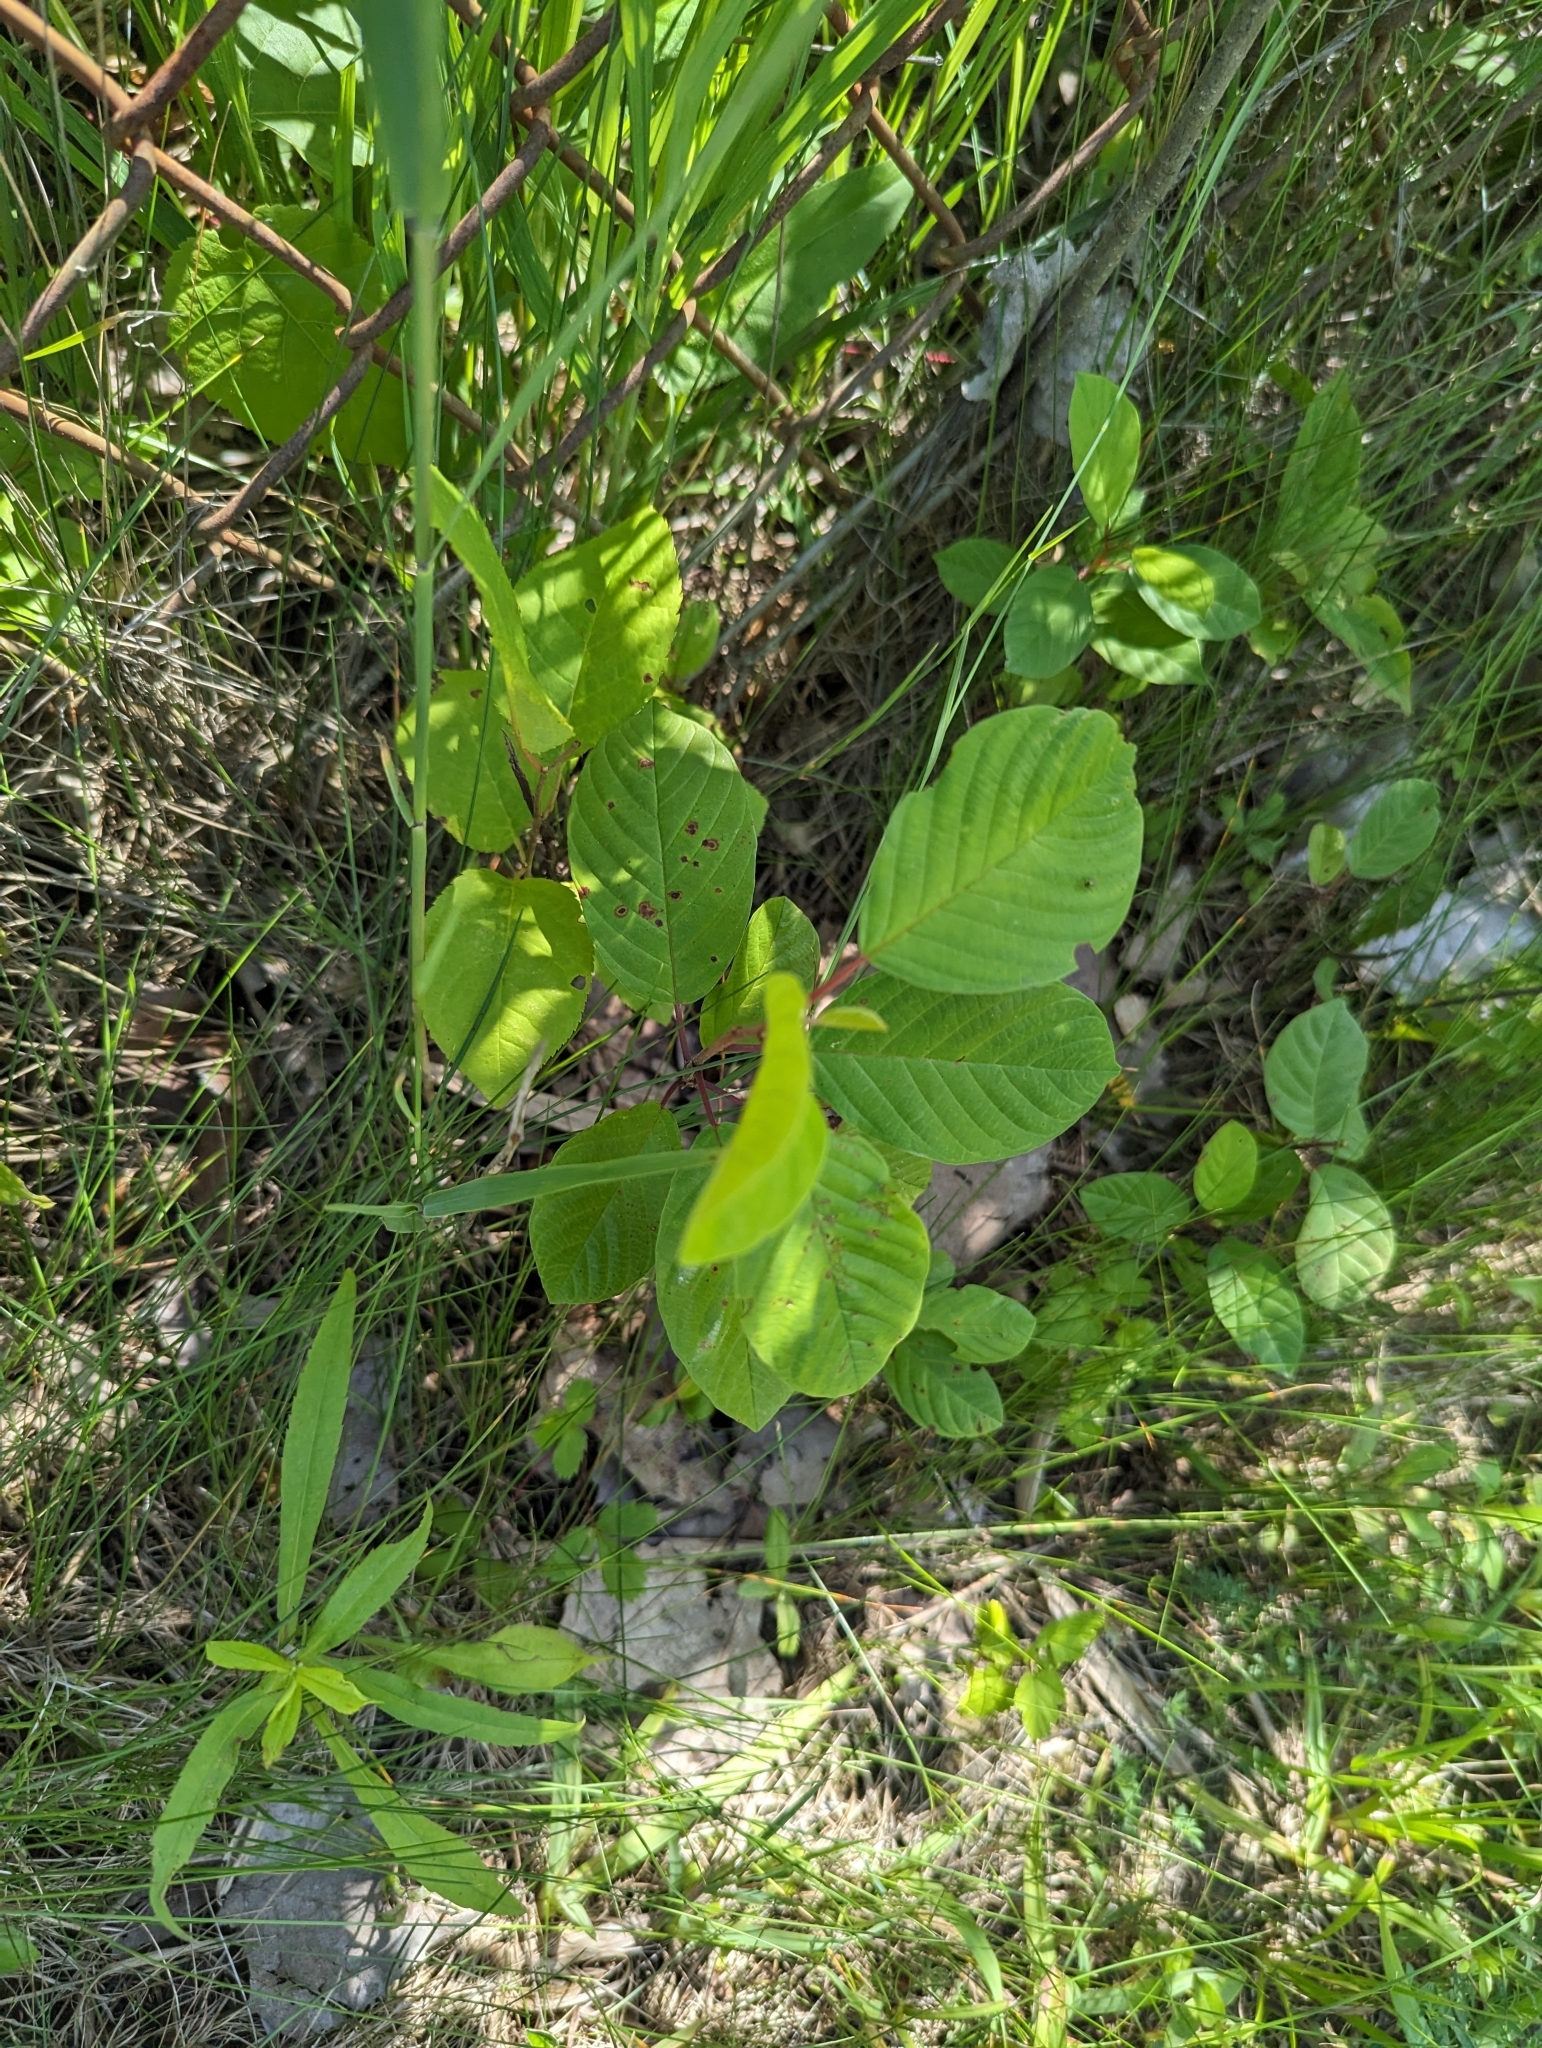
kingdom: Plantae
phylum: Tracheophyta
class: Magnoliopsida
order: Rosales
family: Rhamnaceae
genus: Frangula
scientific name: Frangula alnus
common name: Alder buckthorn
